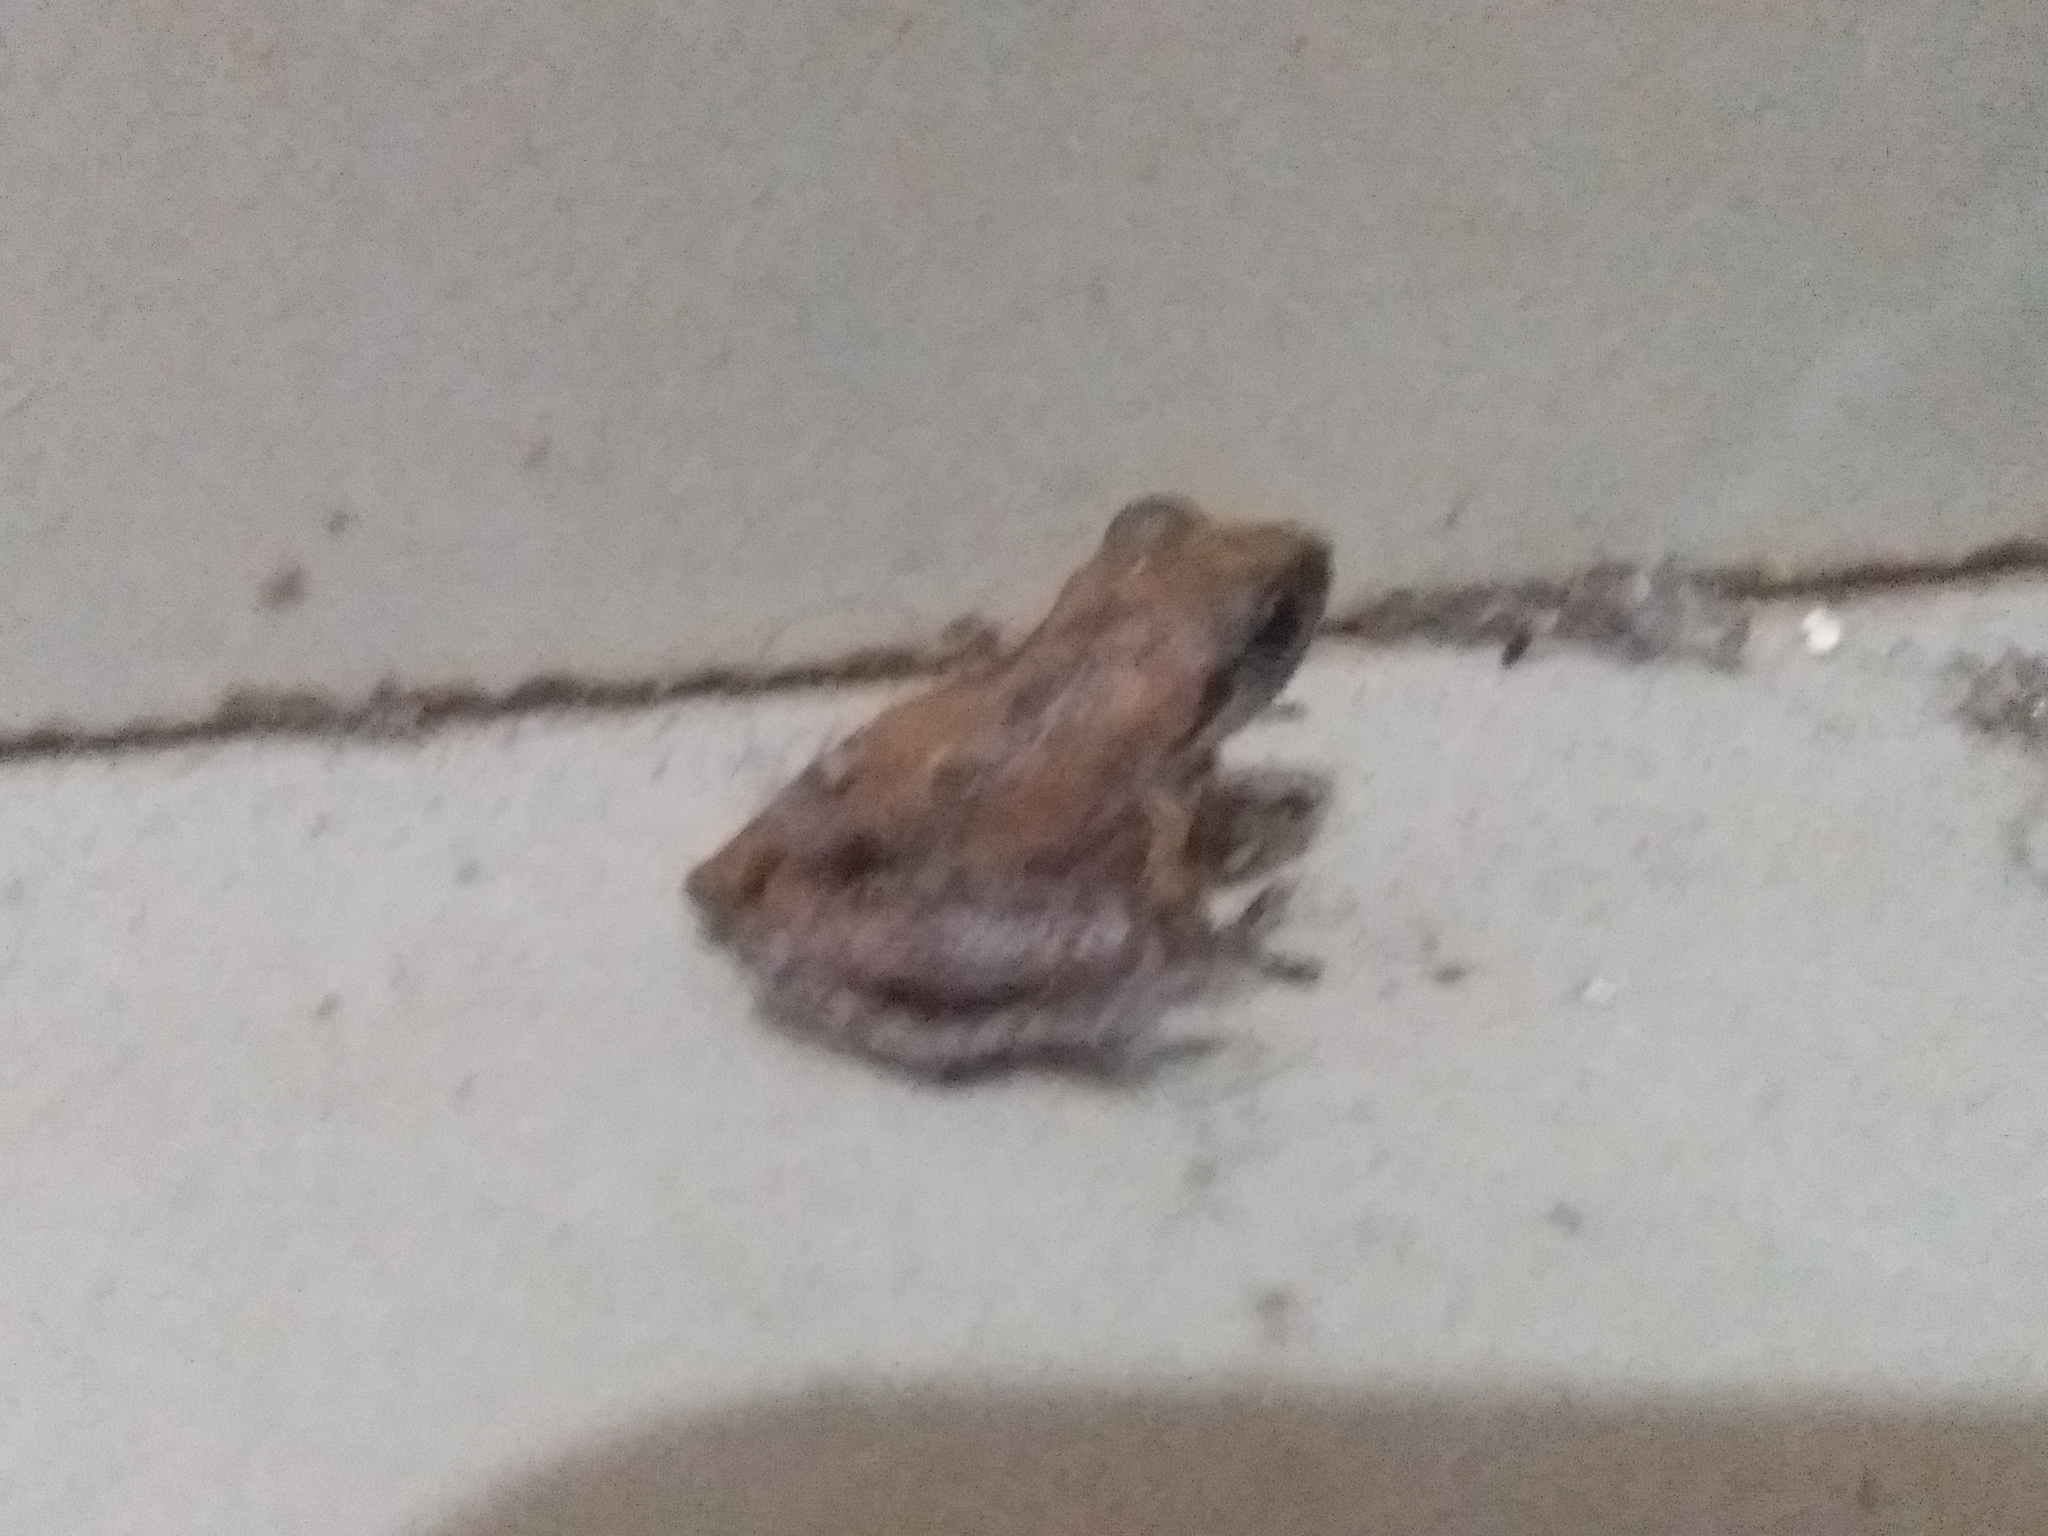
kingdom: Animalia
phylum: Chordata
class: Amphibia
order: Anura
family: Rhacophoridae
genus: Pseudophilautus
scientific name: Pseudophilautus wynaadensis
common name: Dark-eared bush frog
